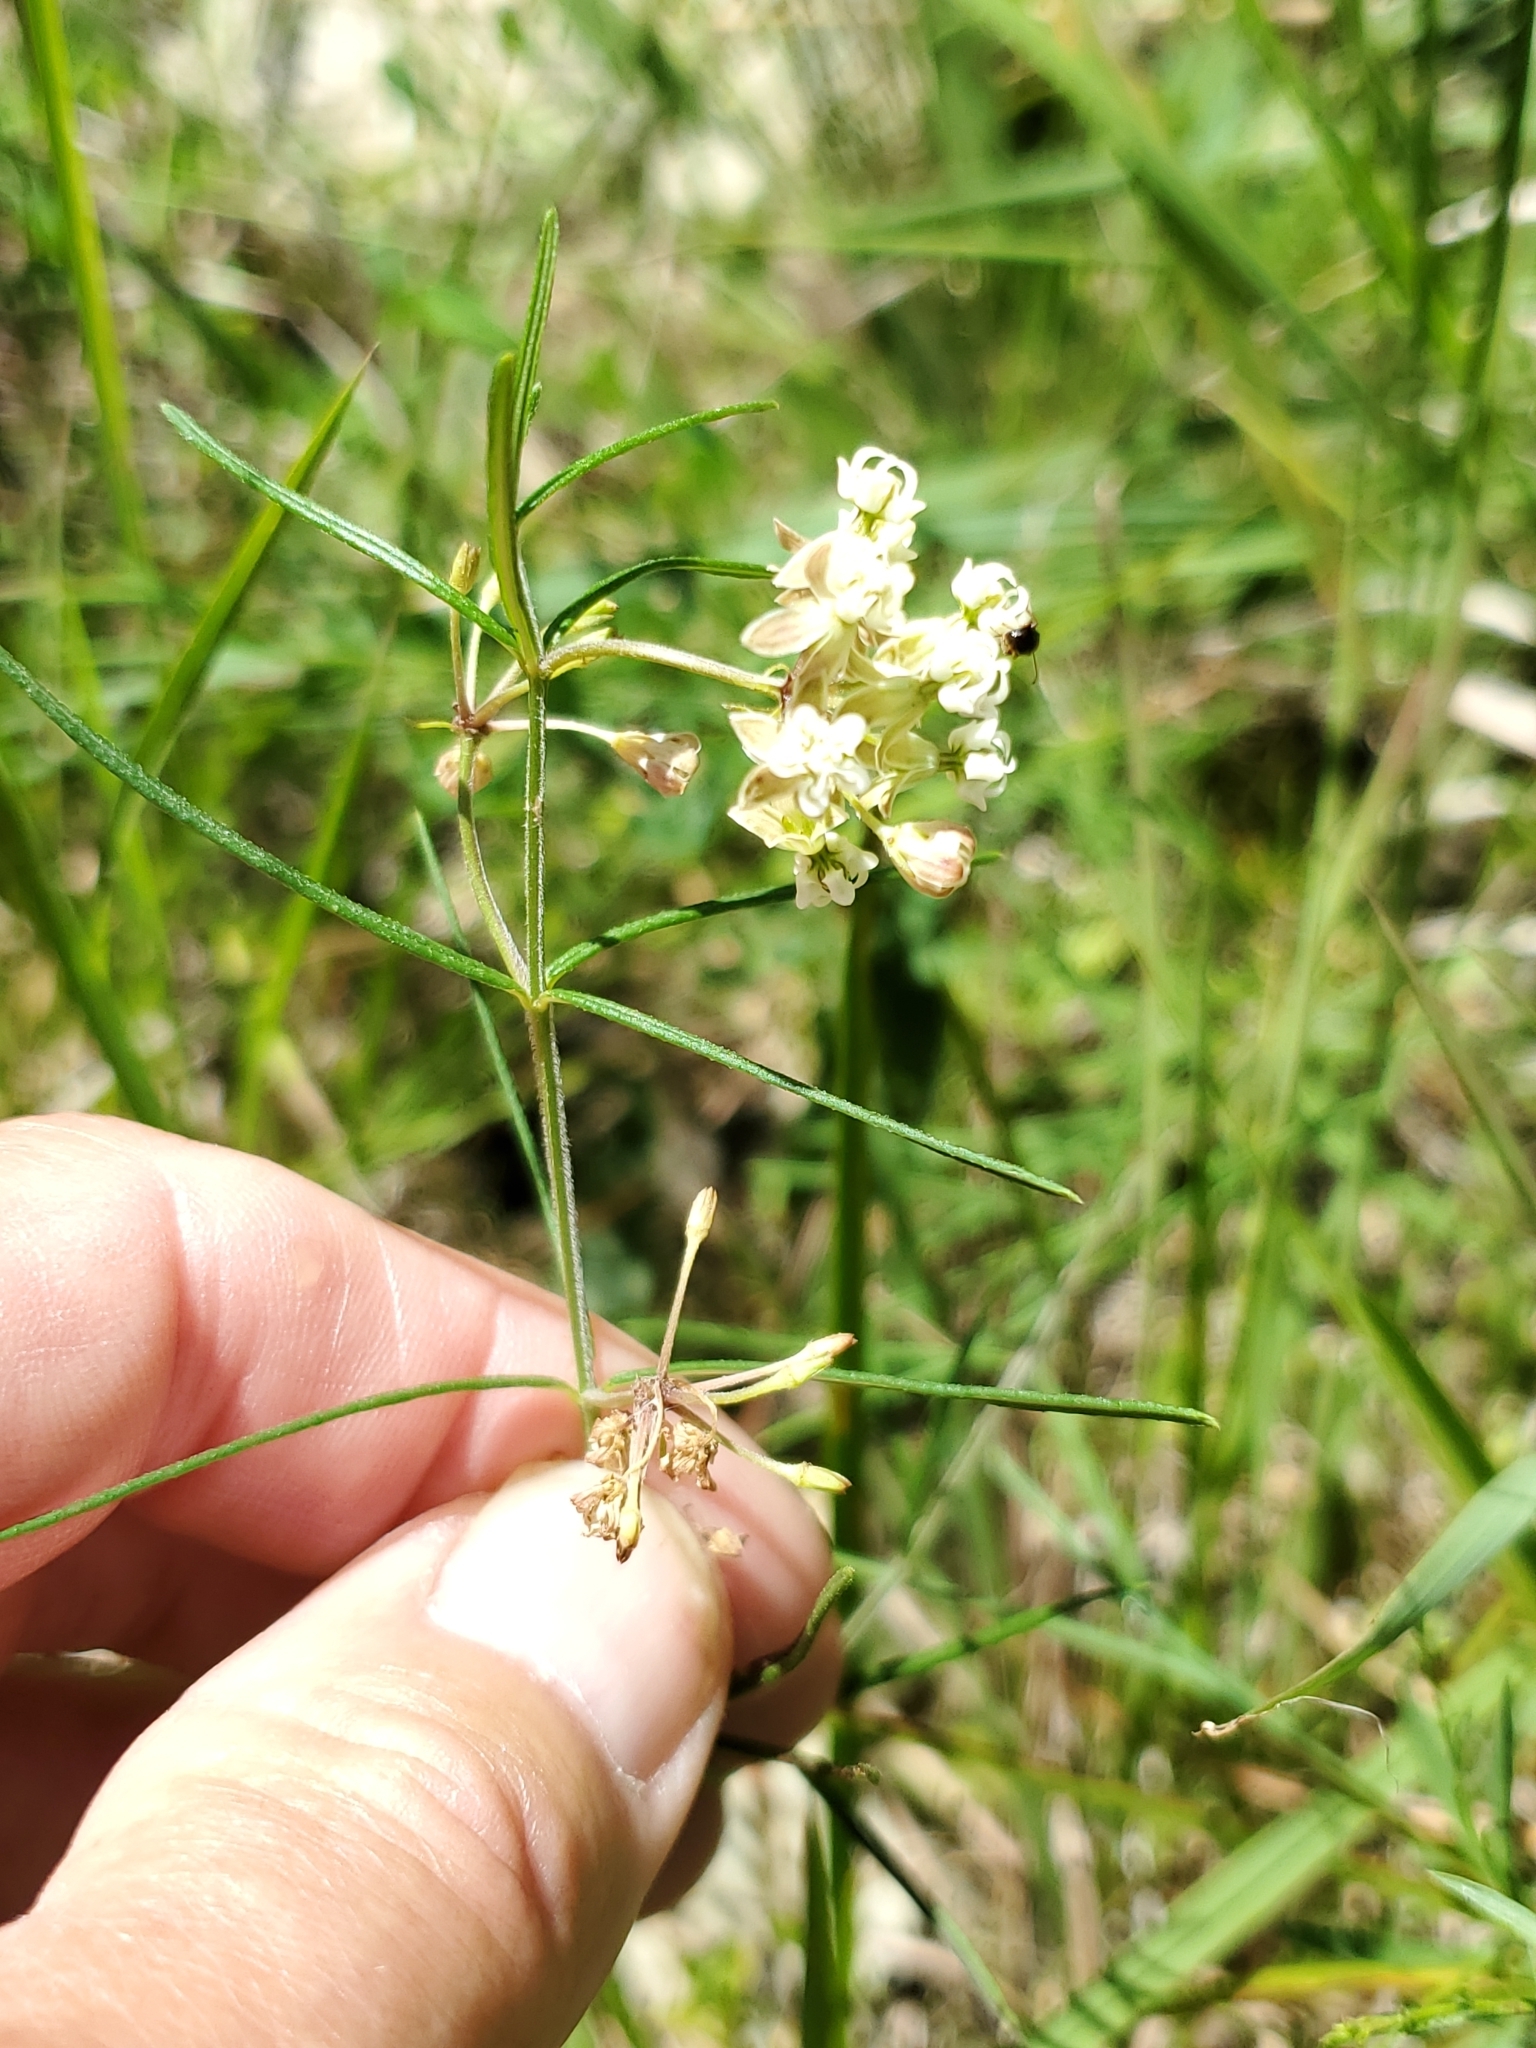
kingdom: Plantae
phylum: Tracheophyta
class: Magnoliopsida
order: Gentianales
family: Apocynaceae
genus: Asclepias
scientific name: Asclepias verticillata
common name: Eastern whorled milkweed
